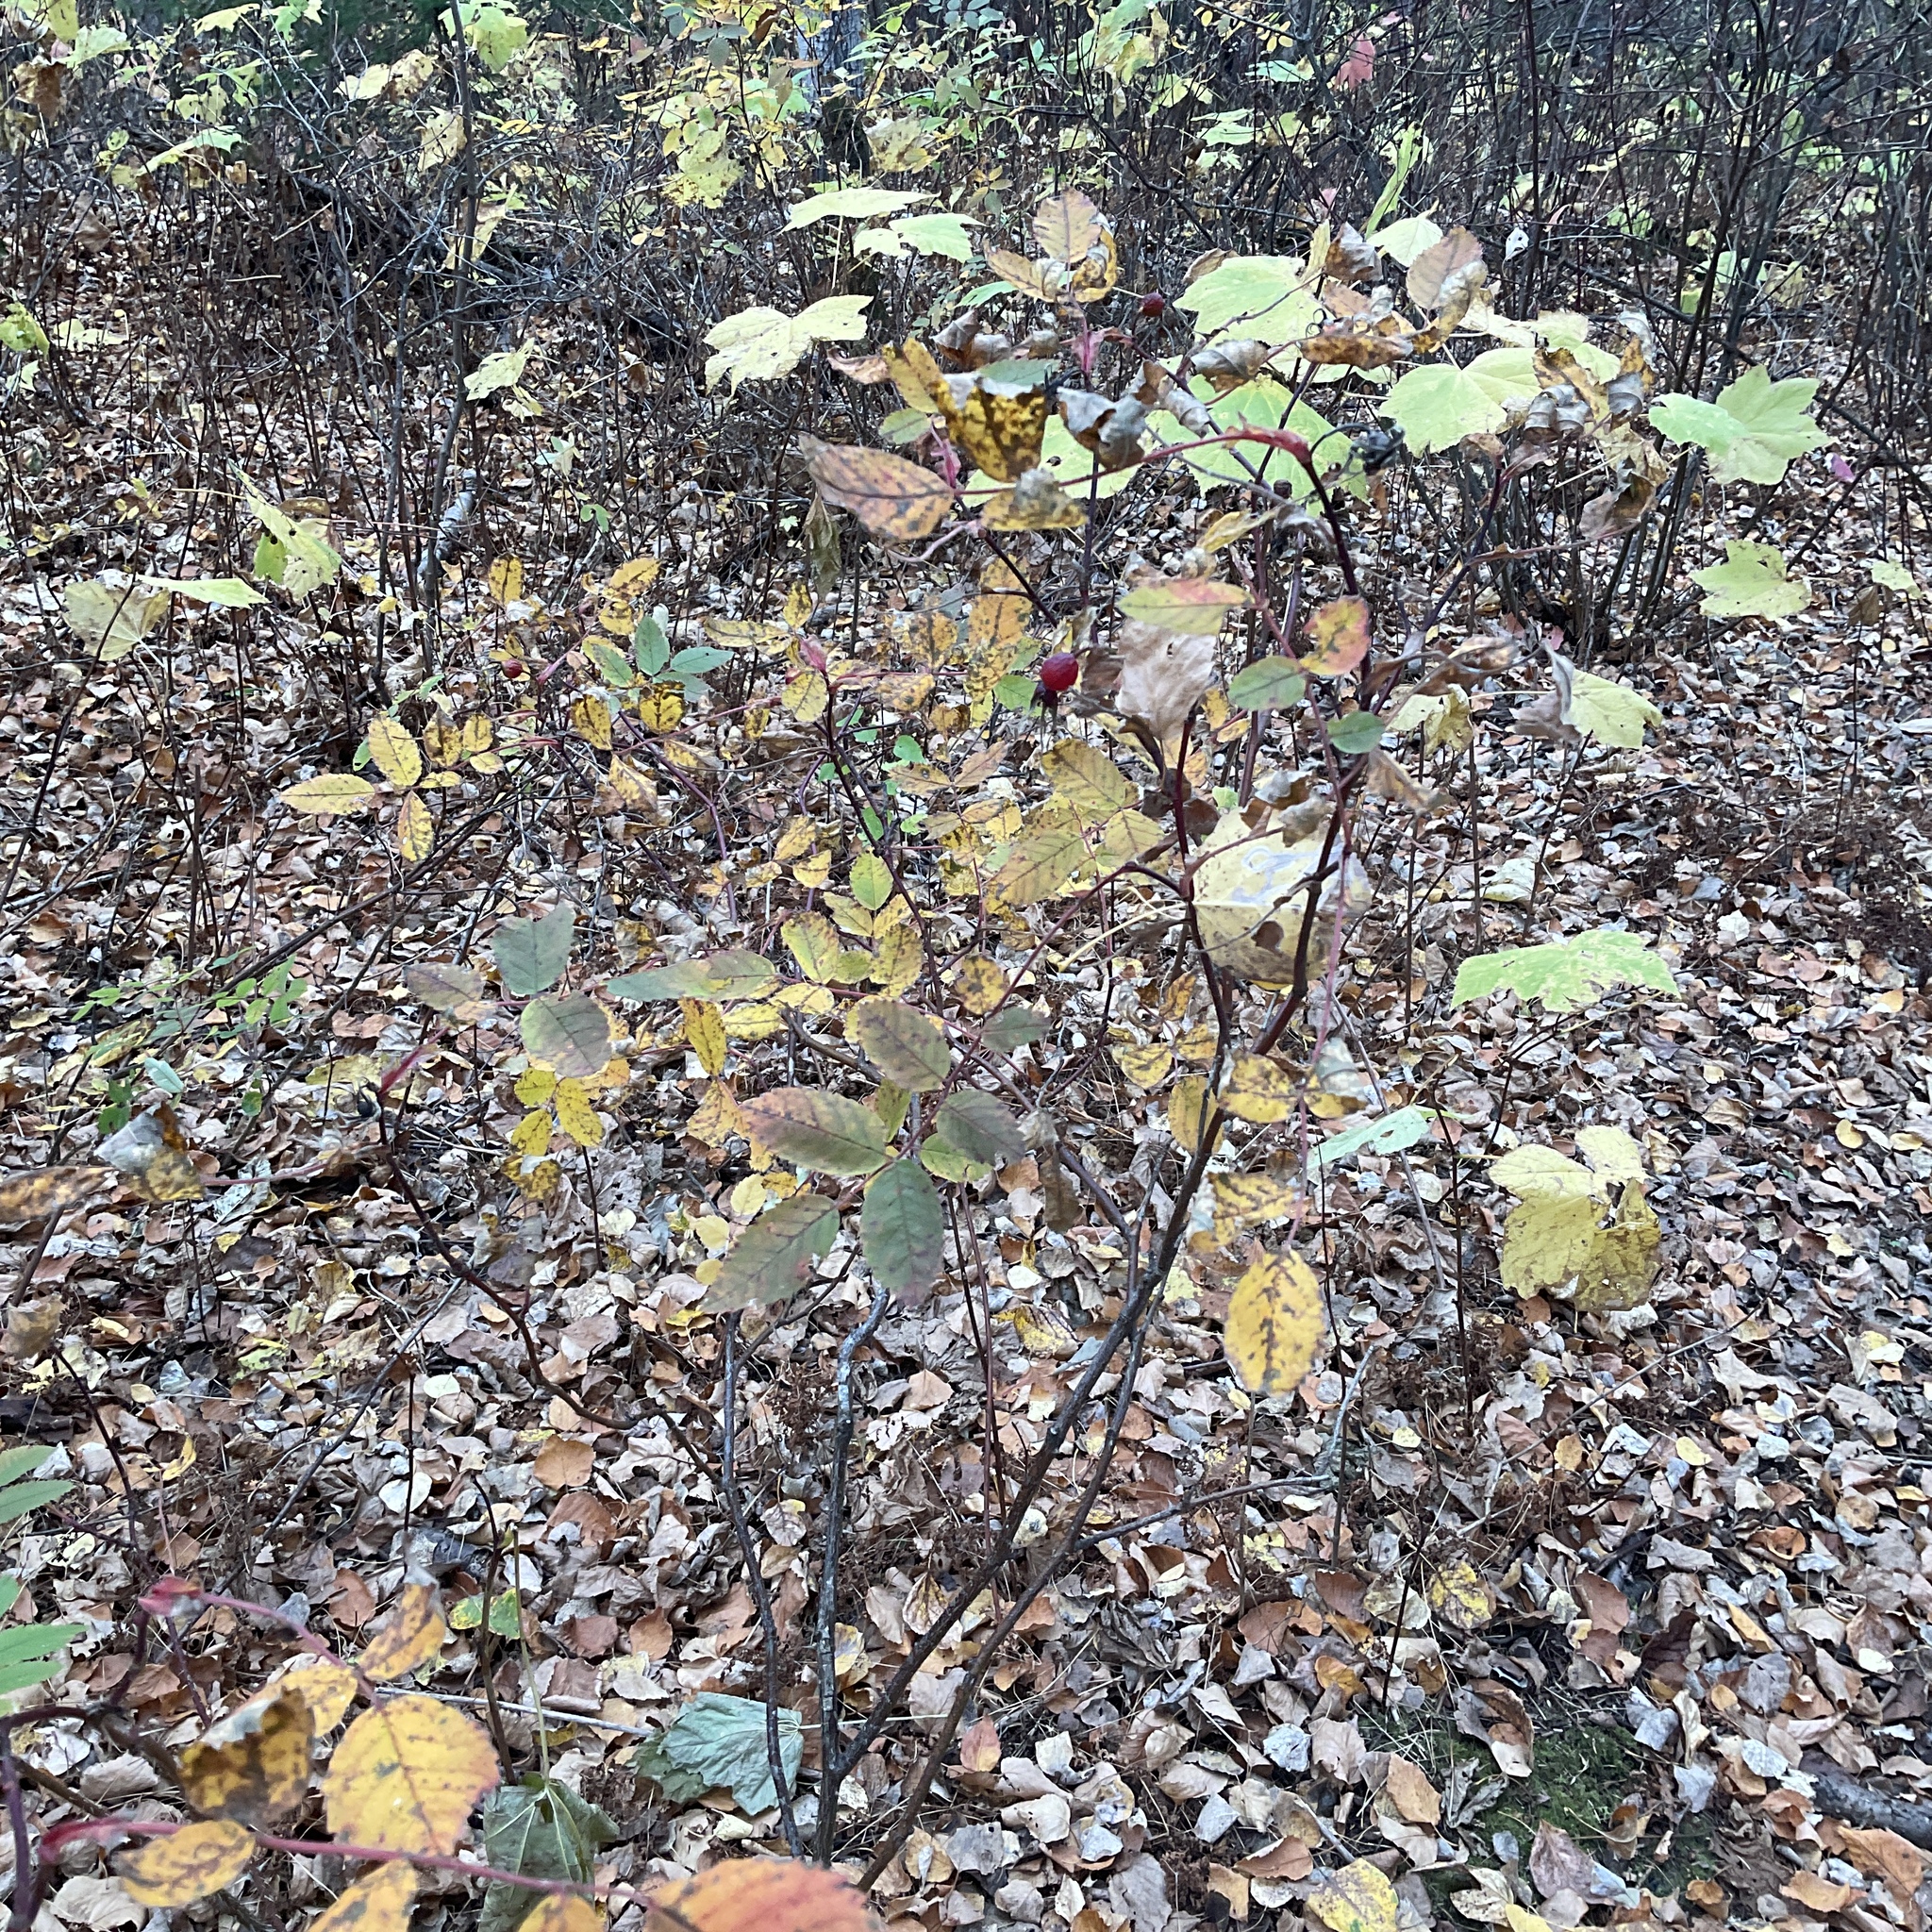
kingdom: Plantae
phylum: Tracheophyta
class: Magnoliopsida
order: Rosales
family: Rosaceae
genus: Rosa
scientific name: Rosa acicularis
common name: Prickly rose
